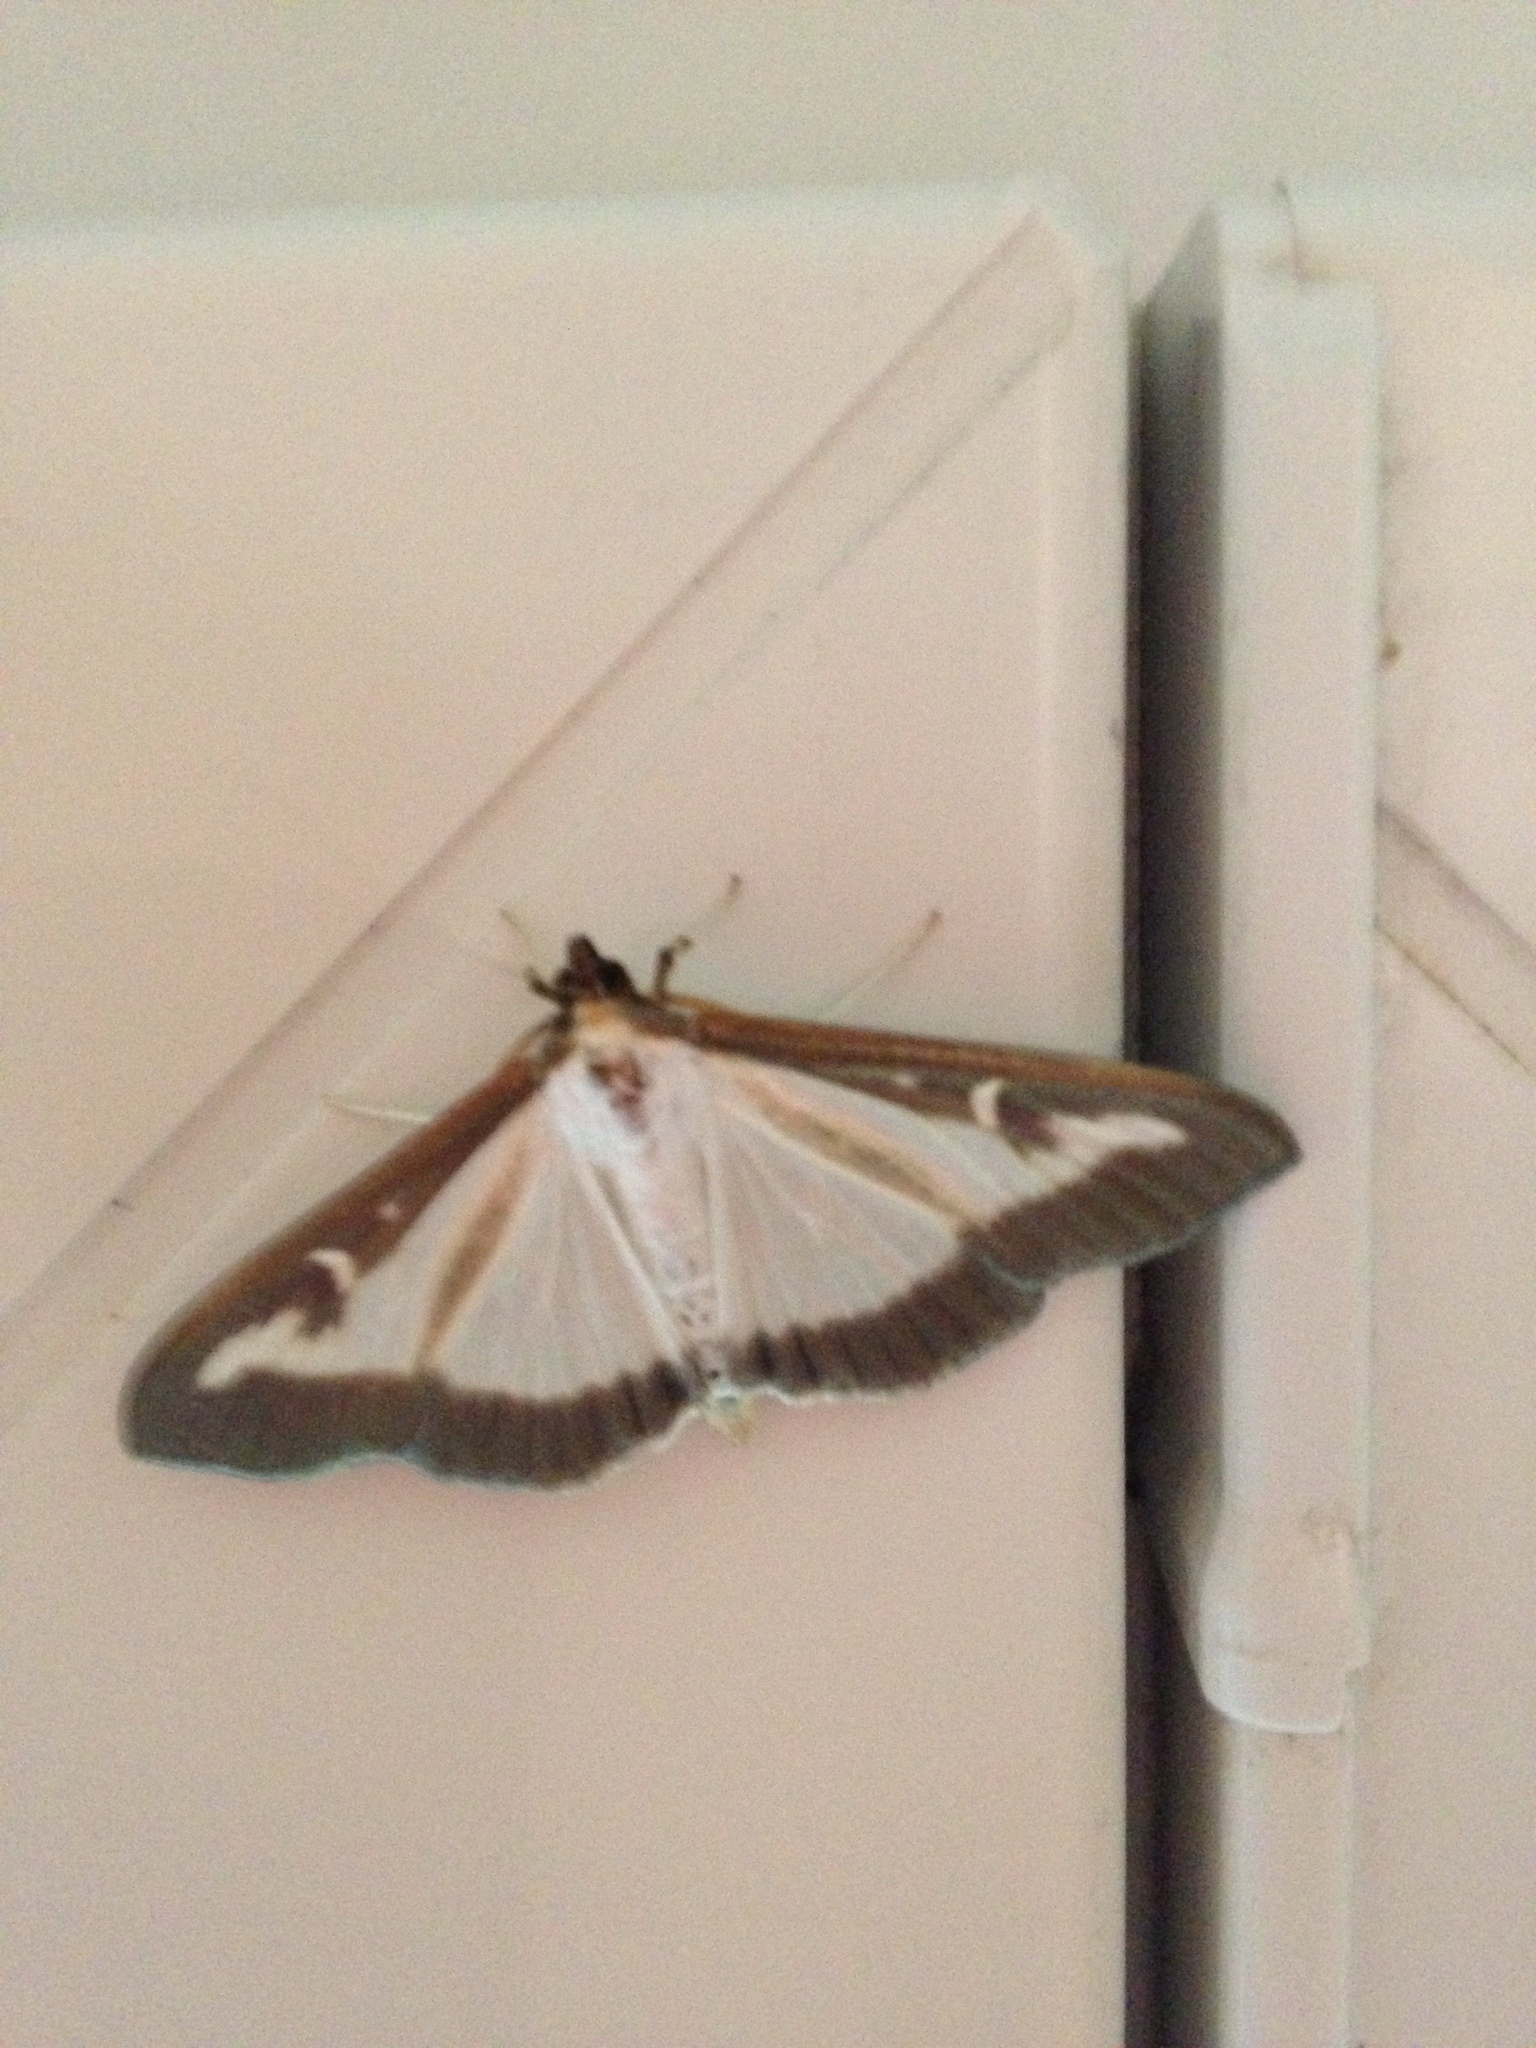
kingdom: Animalia
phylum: Arthropoda
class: Insecta
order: Lepidoptera
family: Crambidae
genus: Cydalima
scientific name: Cydalima perspectalis
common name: Box tree moth
